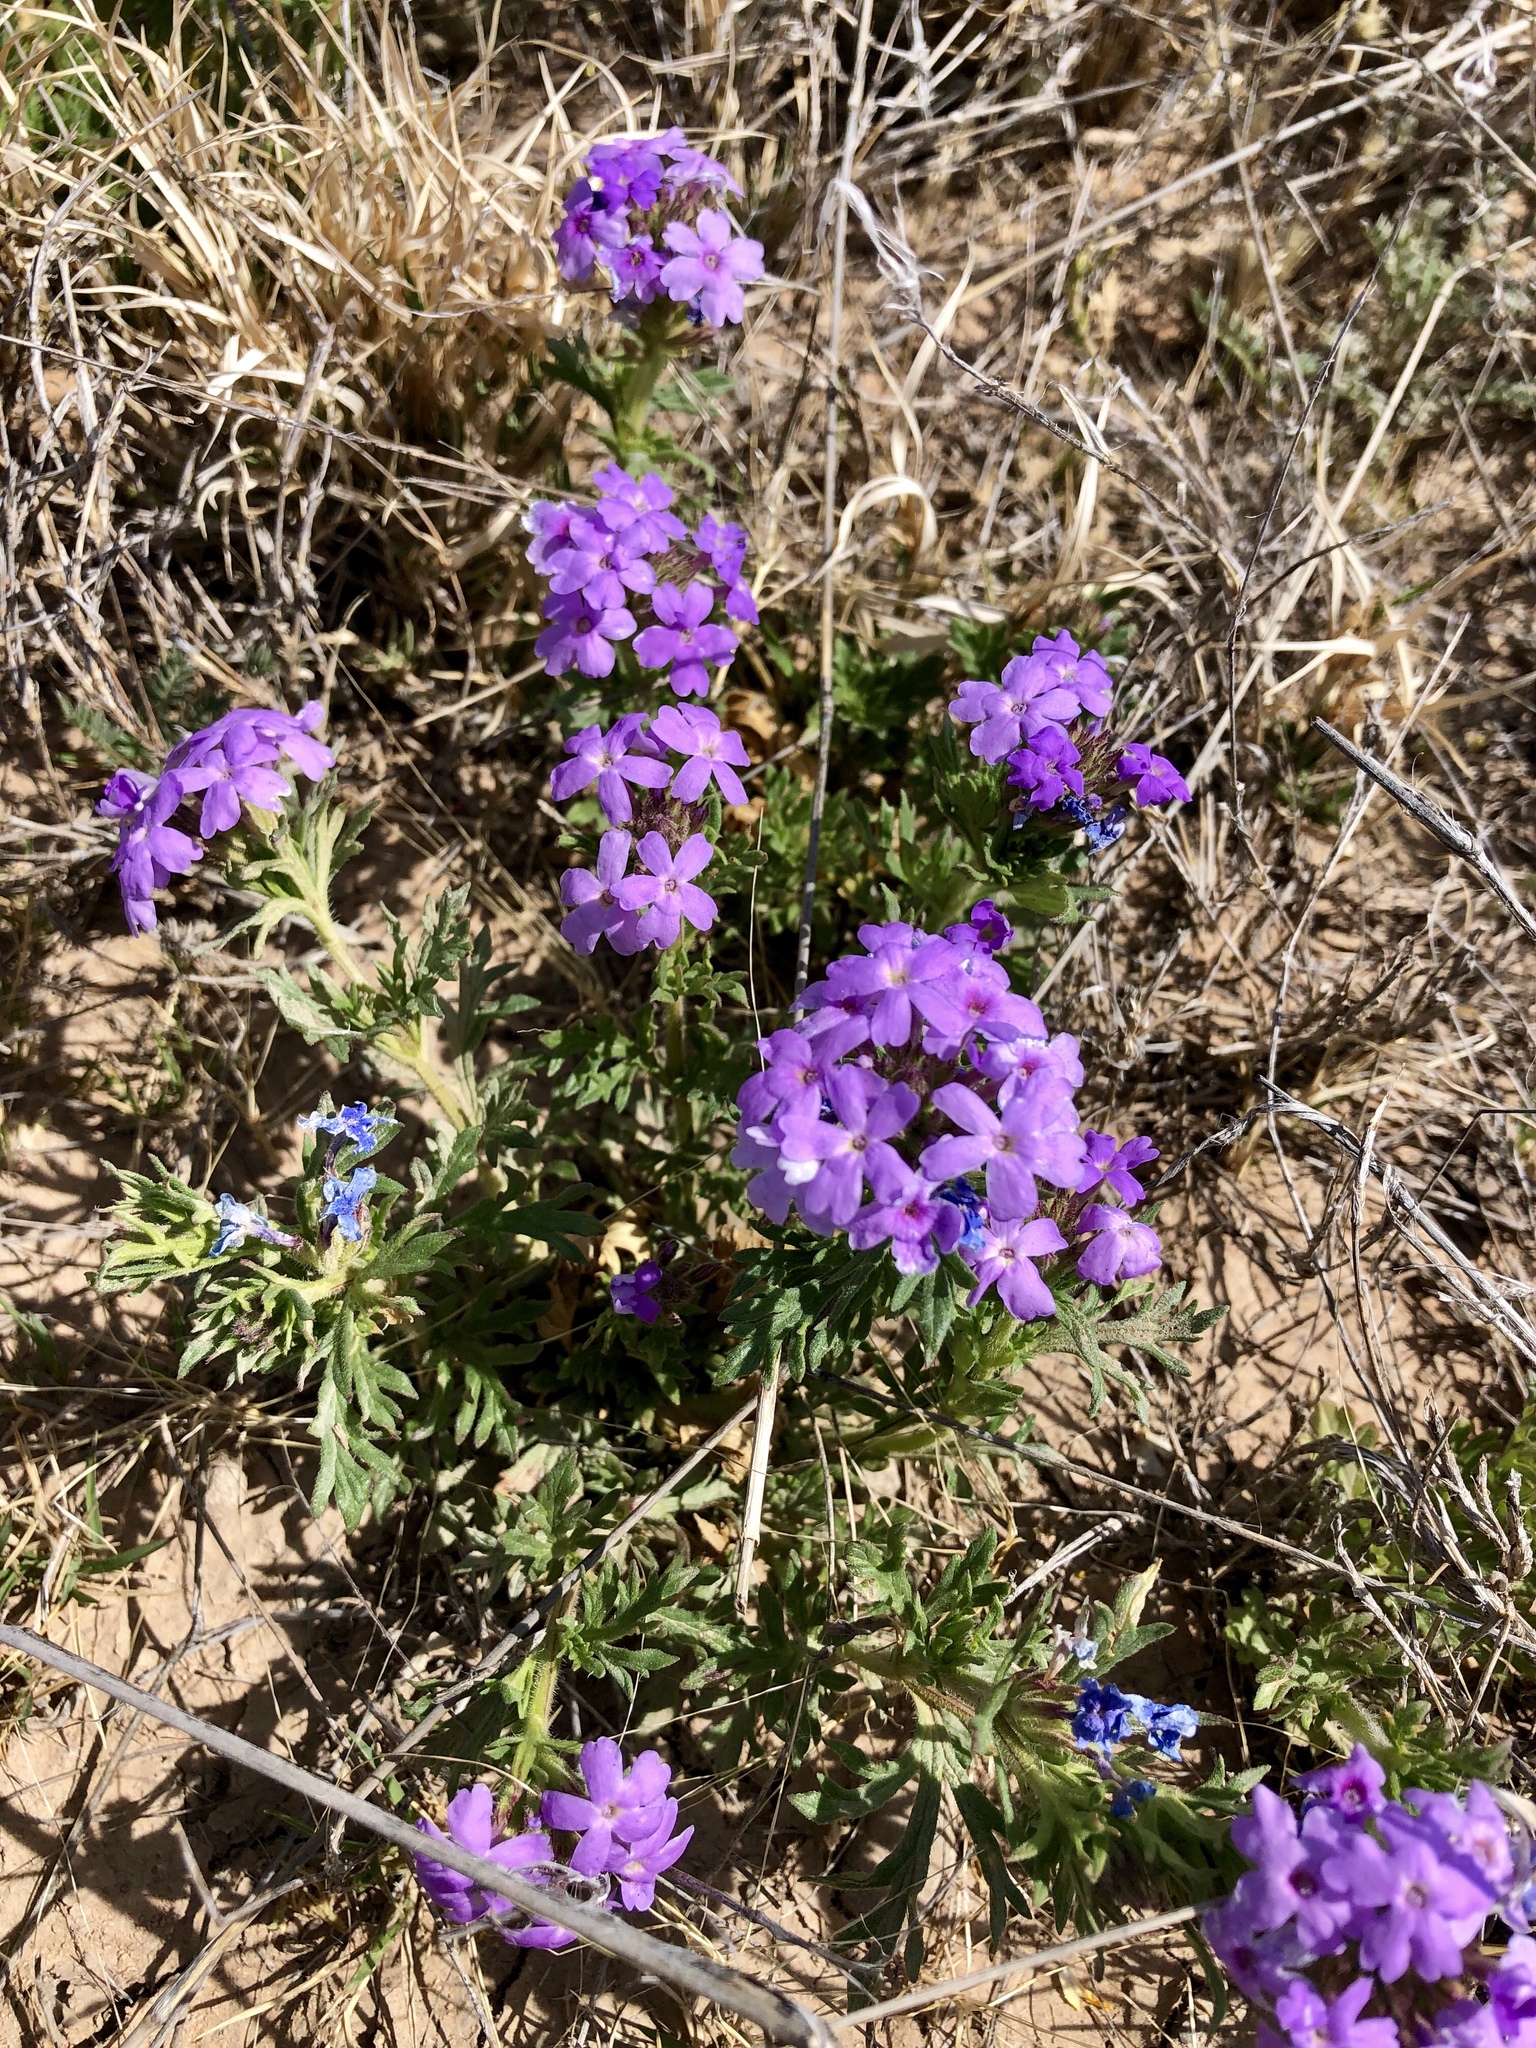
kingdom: Plantae
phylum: Tracheophyta
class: Magnoliopsida
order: Lamiales
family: Verbenaceae
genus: Verbena
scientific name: Verbena bipinnatifida
